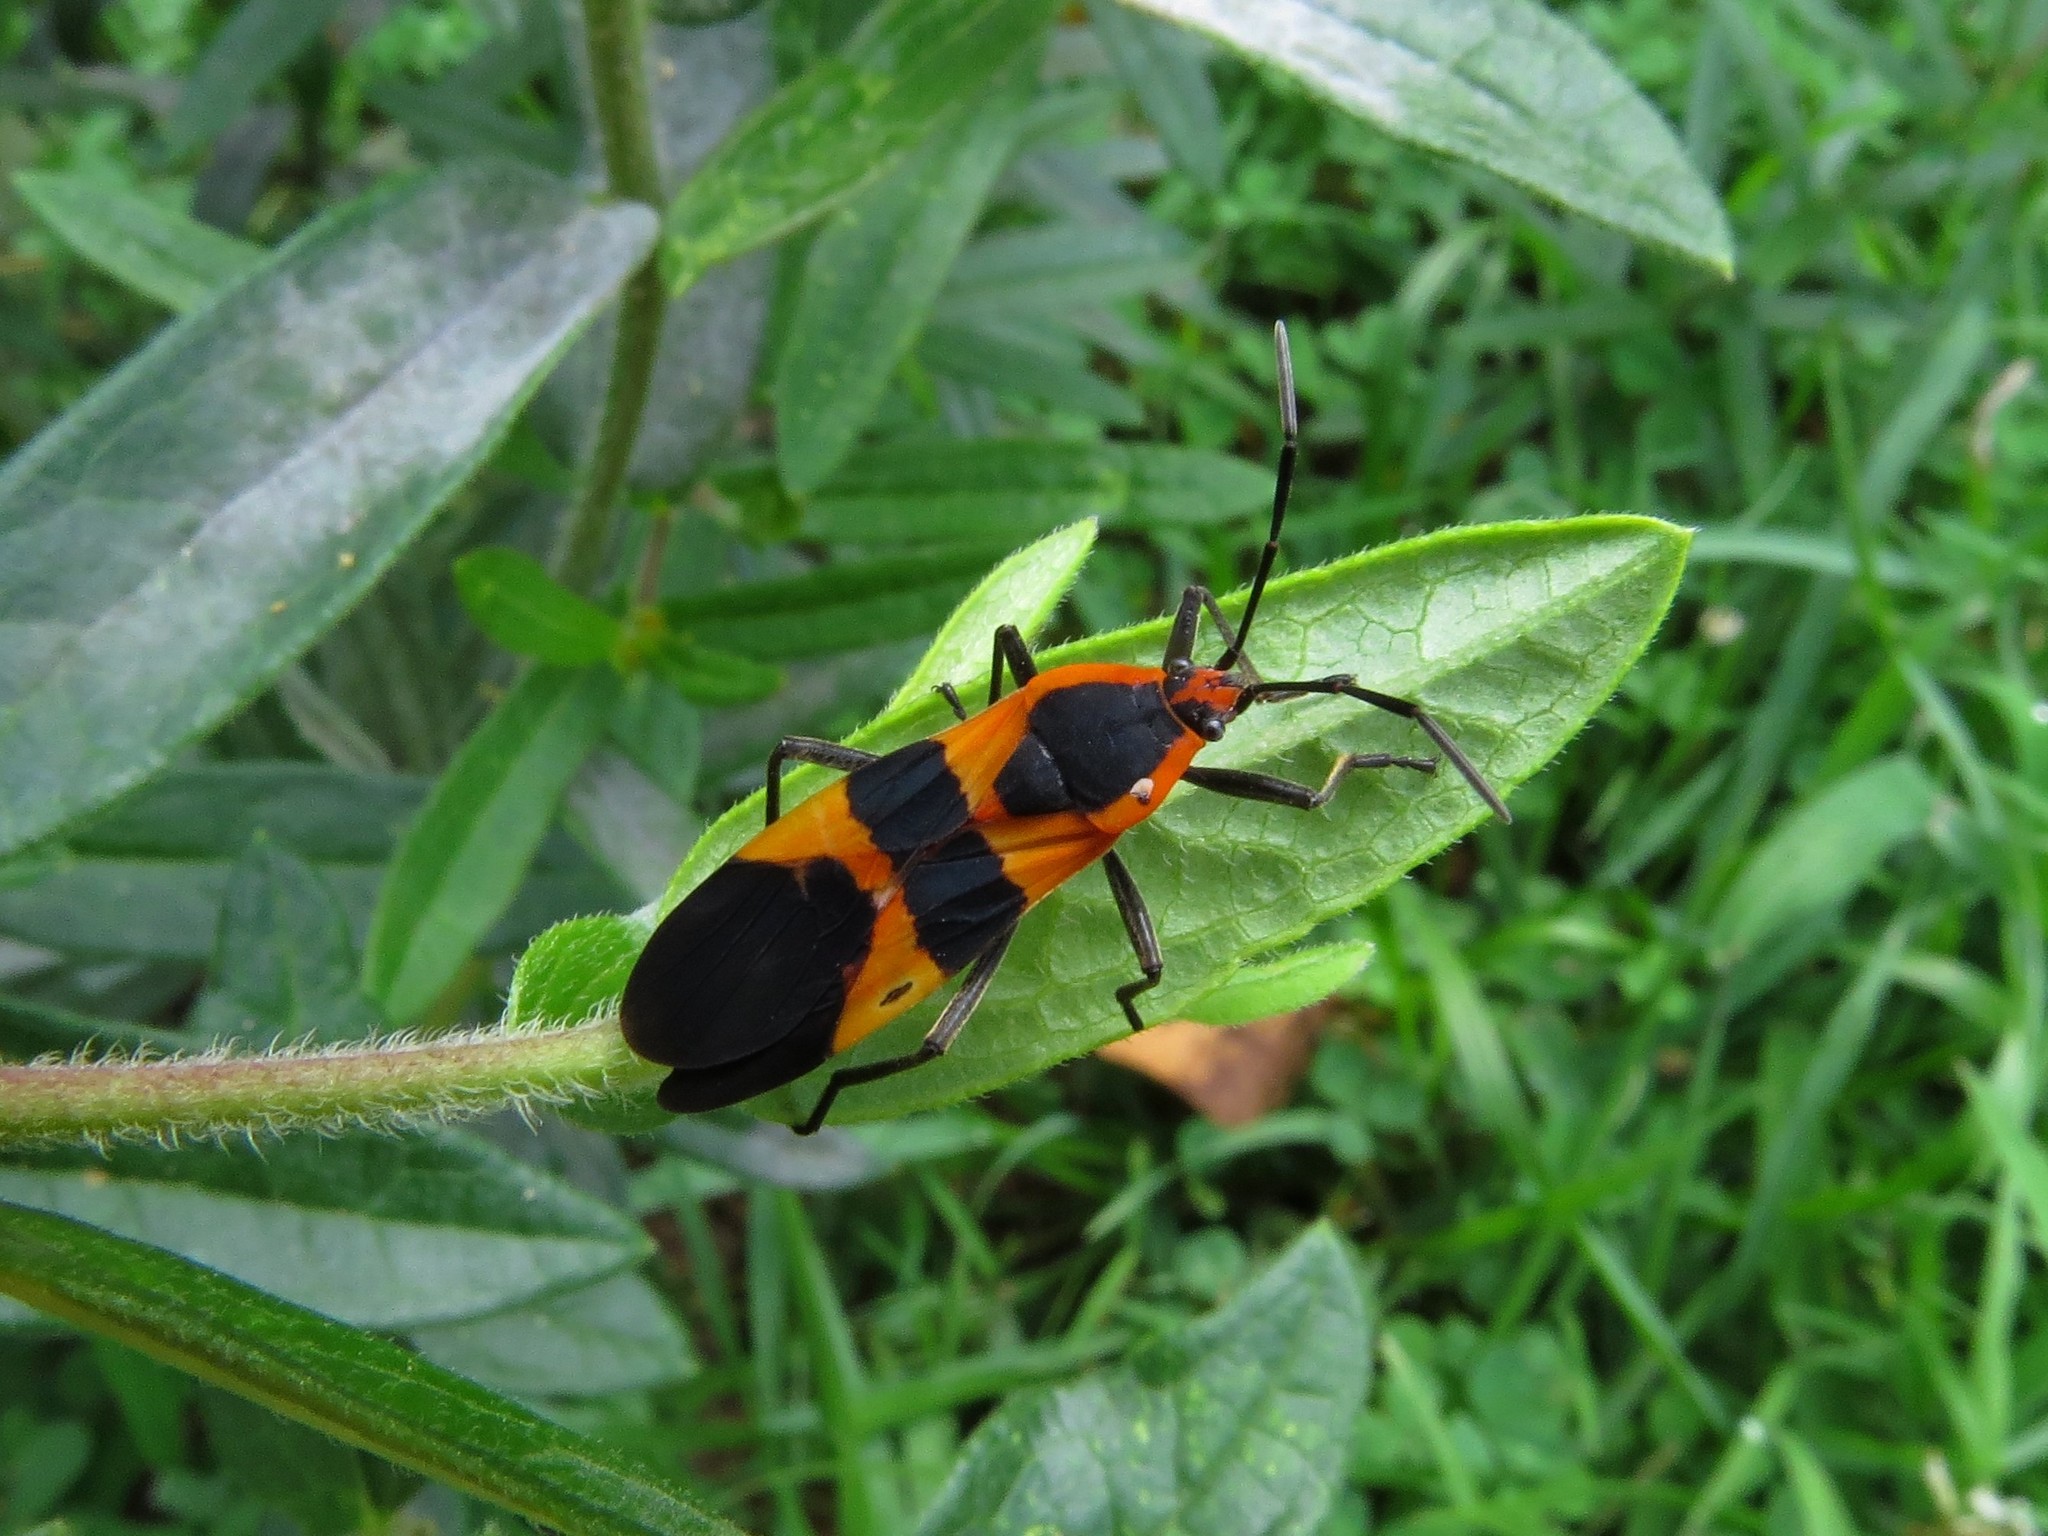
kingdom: Animalia
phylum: Arthropoda
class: Insecta
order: Hemiptera
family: Lygaeidae
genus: Oncopeltus
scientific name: Oncopeltus fasciatus
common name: Large milkweed bug
